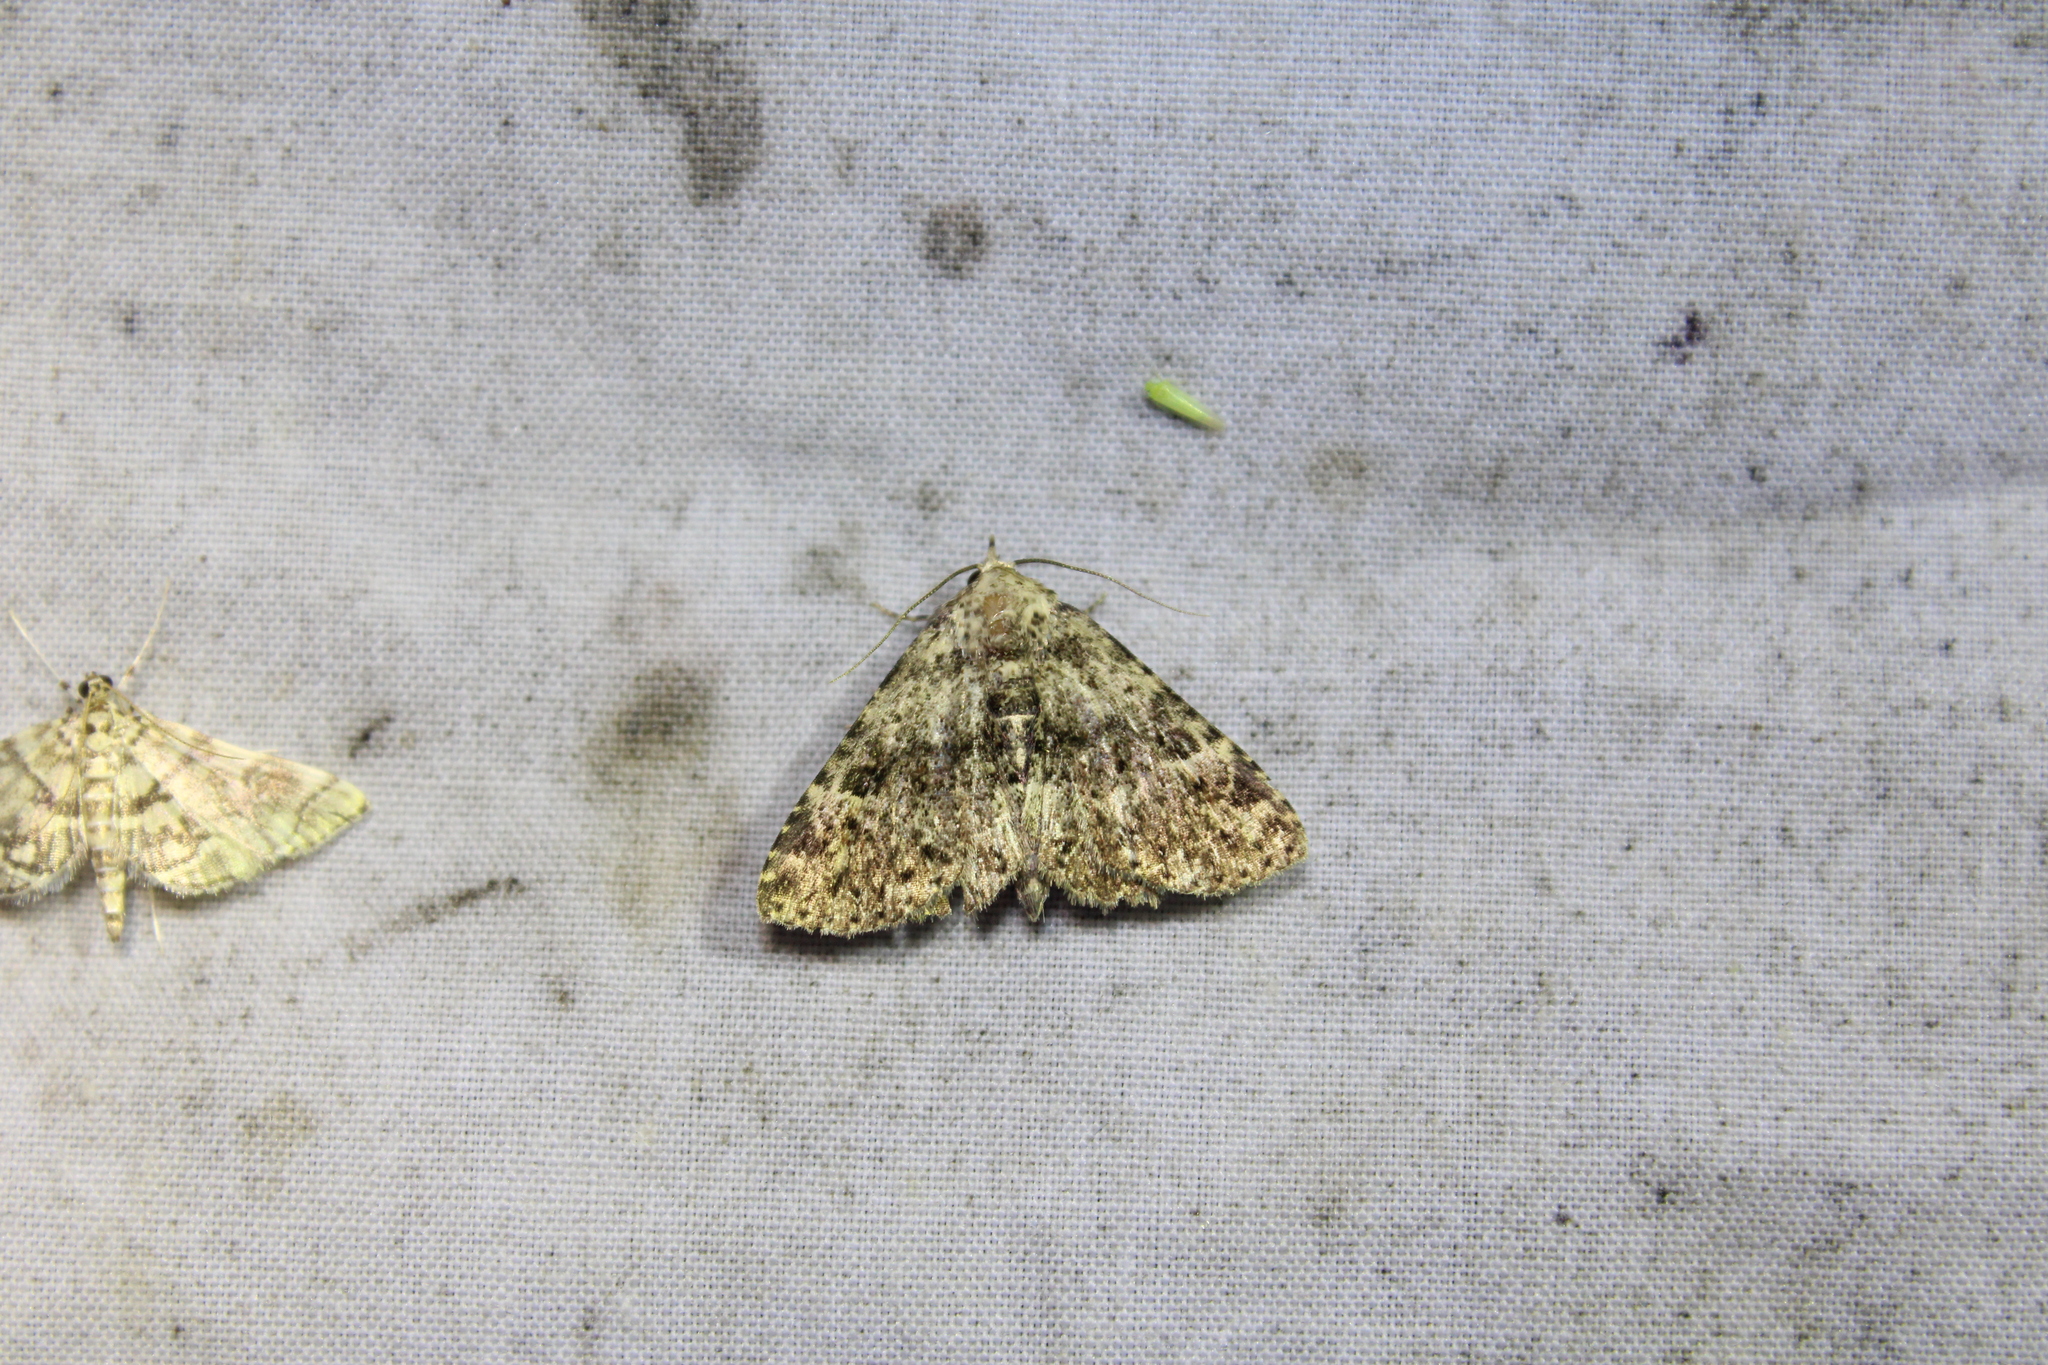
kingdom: Animalia
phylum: Arthropoda
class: Insecta
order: Lepidoptera
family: Erebidae
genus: Metalectra
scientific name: Metalectra discalis
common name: Common fungus moth
